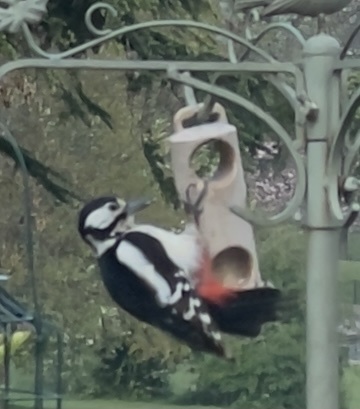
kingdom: Animalia
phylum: Chordata
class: Aves
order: Piciformes
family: Picidae
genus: Dendrocopos
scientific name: Dendrocopos major
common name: Great spotted woodpecker
